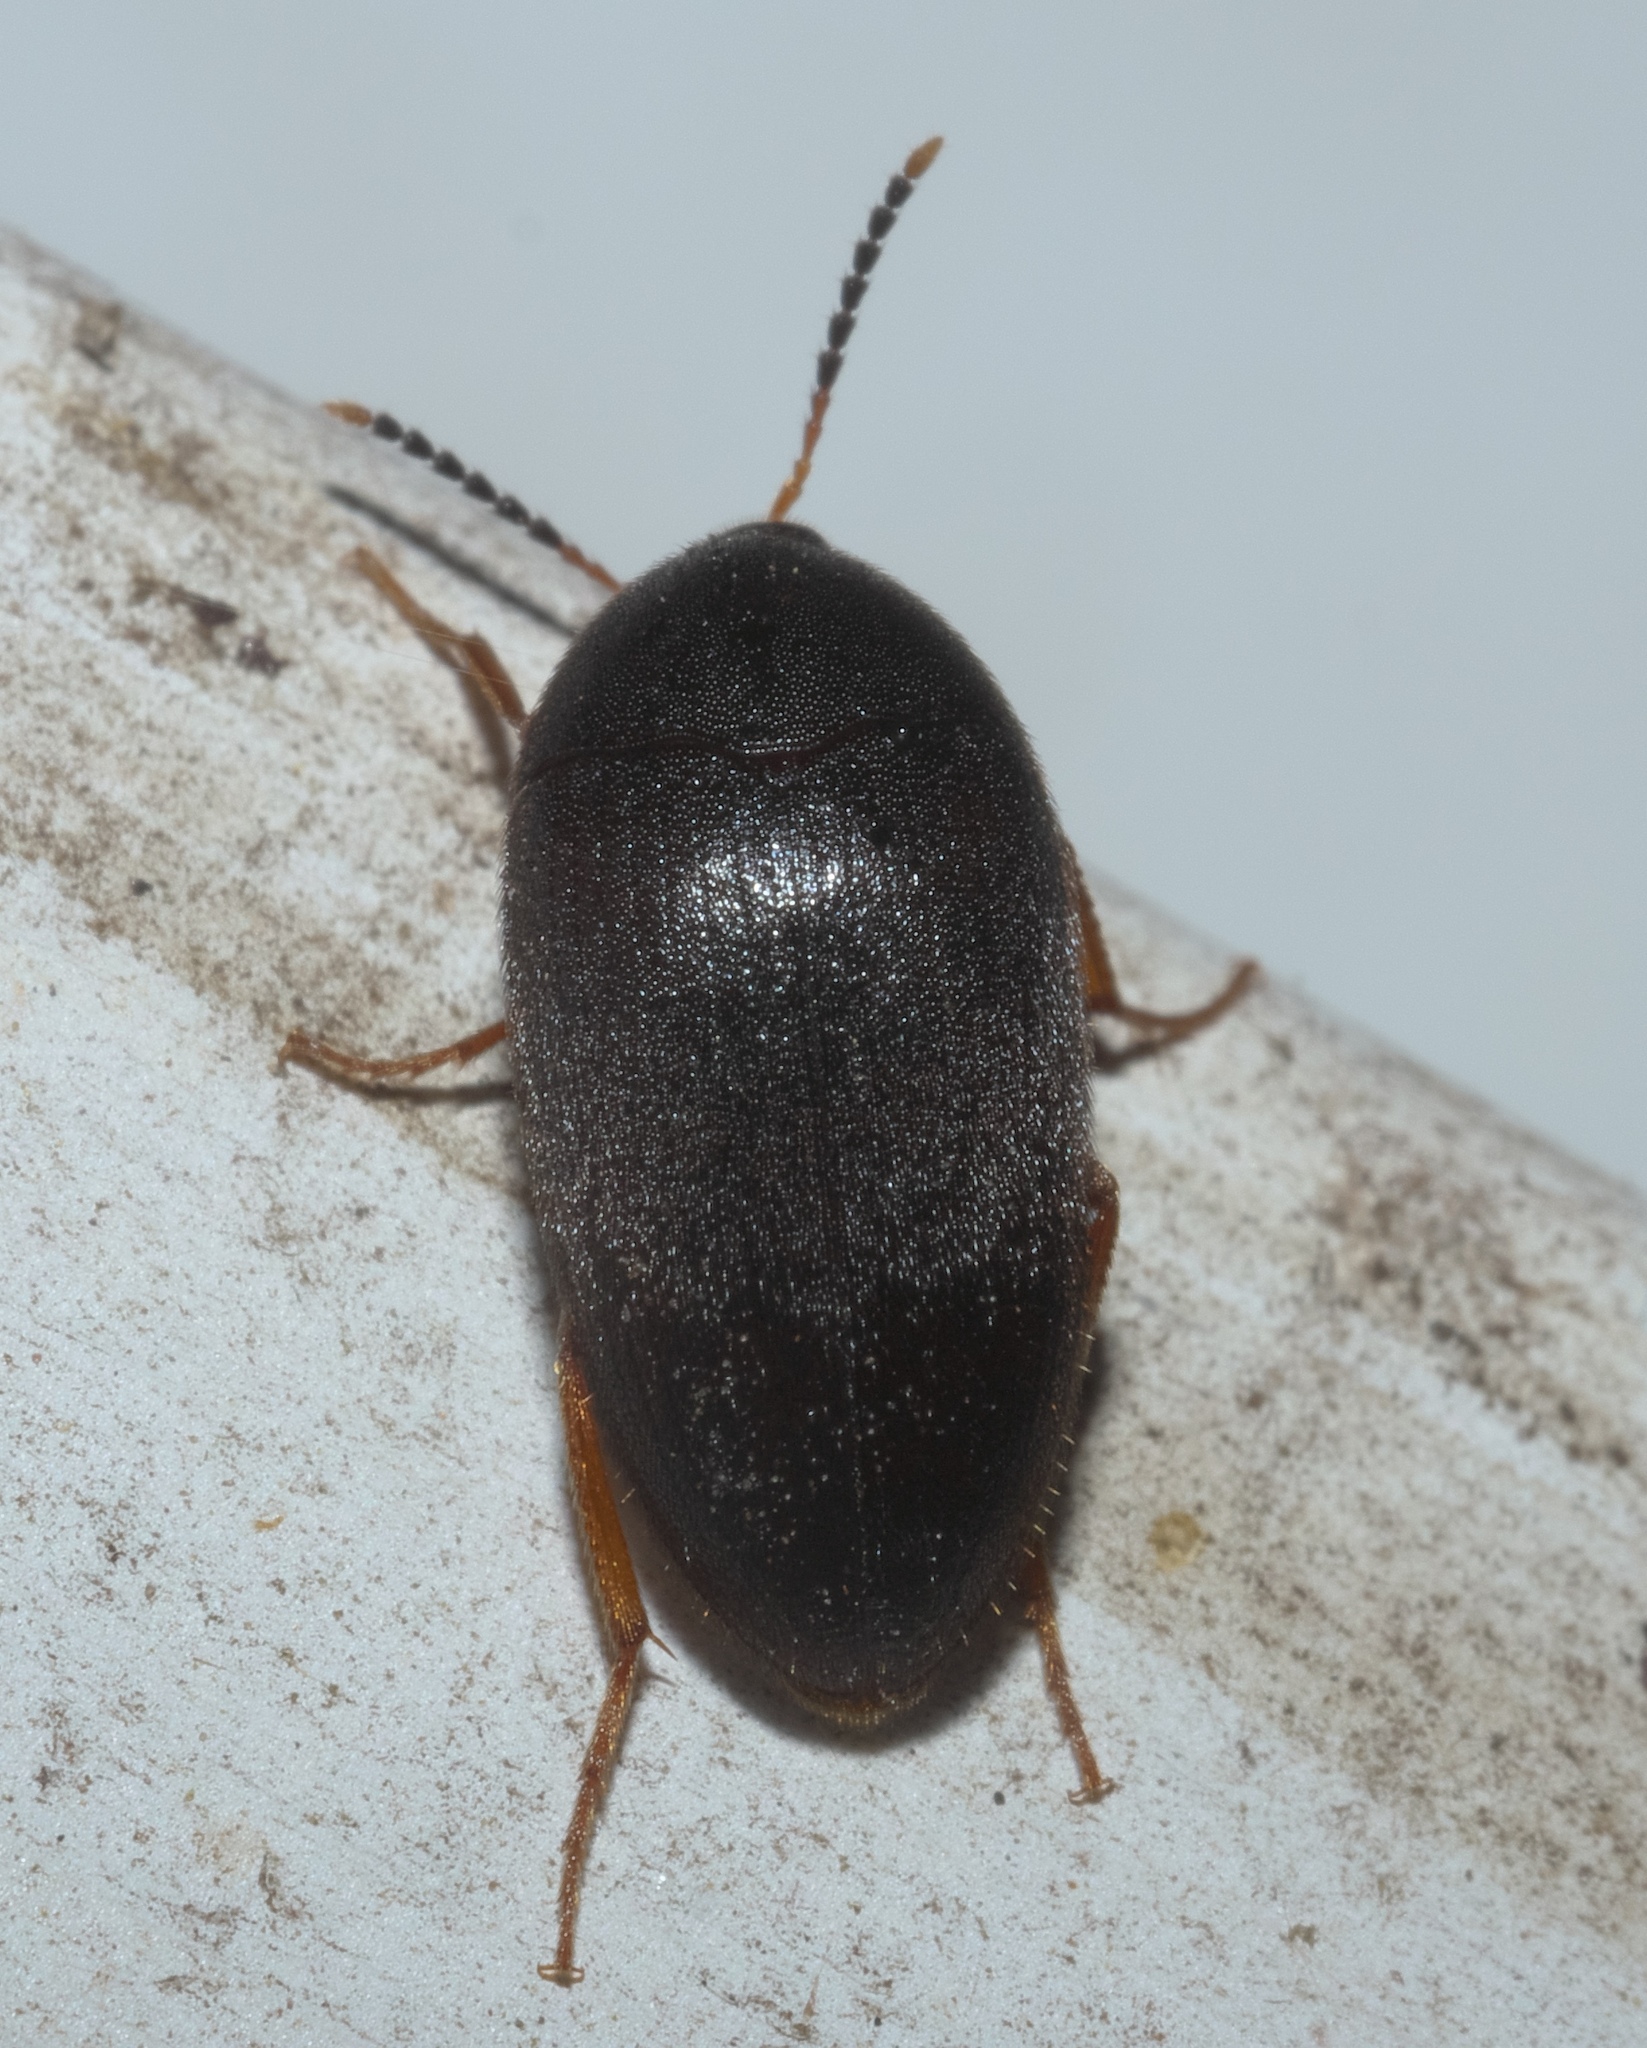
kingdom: Animalia
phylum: Arthropoda
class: Insecta
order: Coleoptera
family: Tetratomidae
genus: Eustrophopsis
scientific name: Eustrophopsis bicolor
